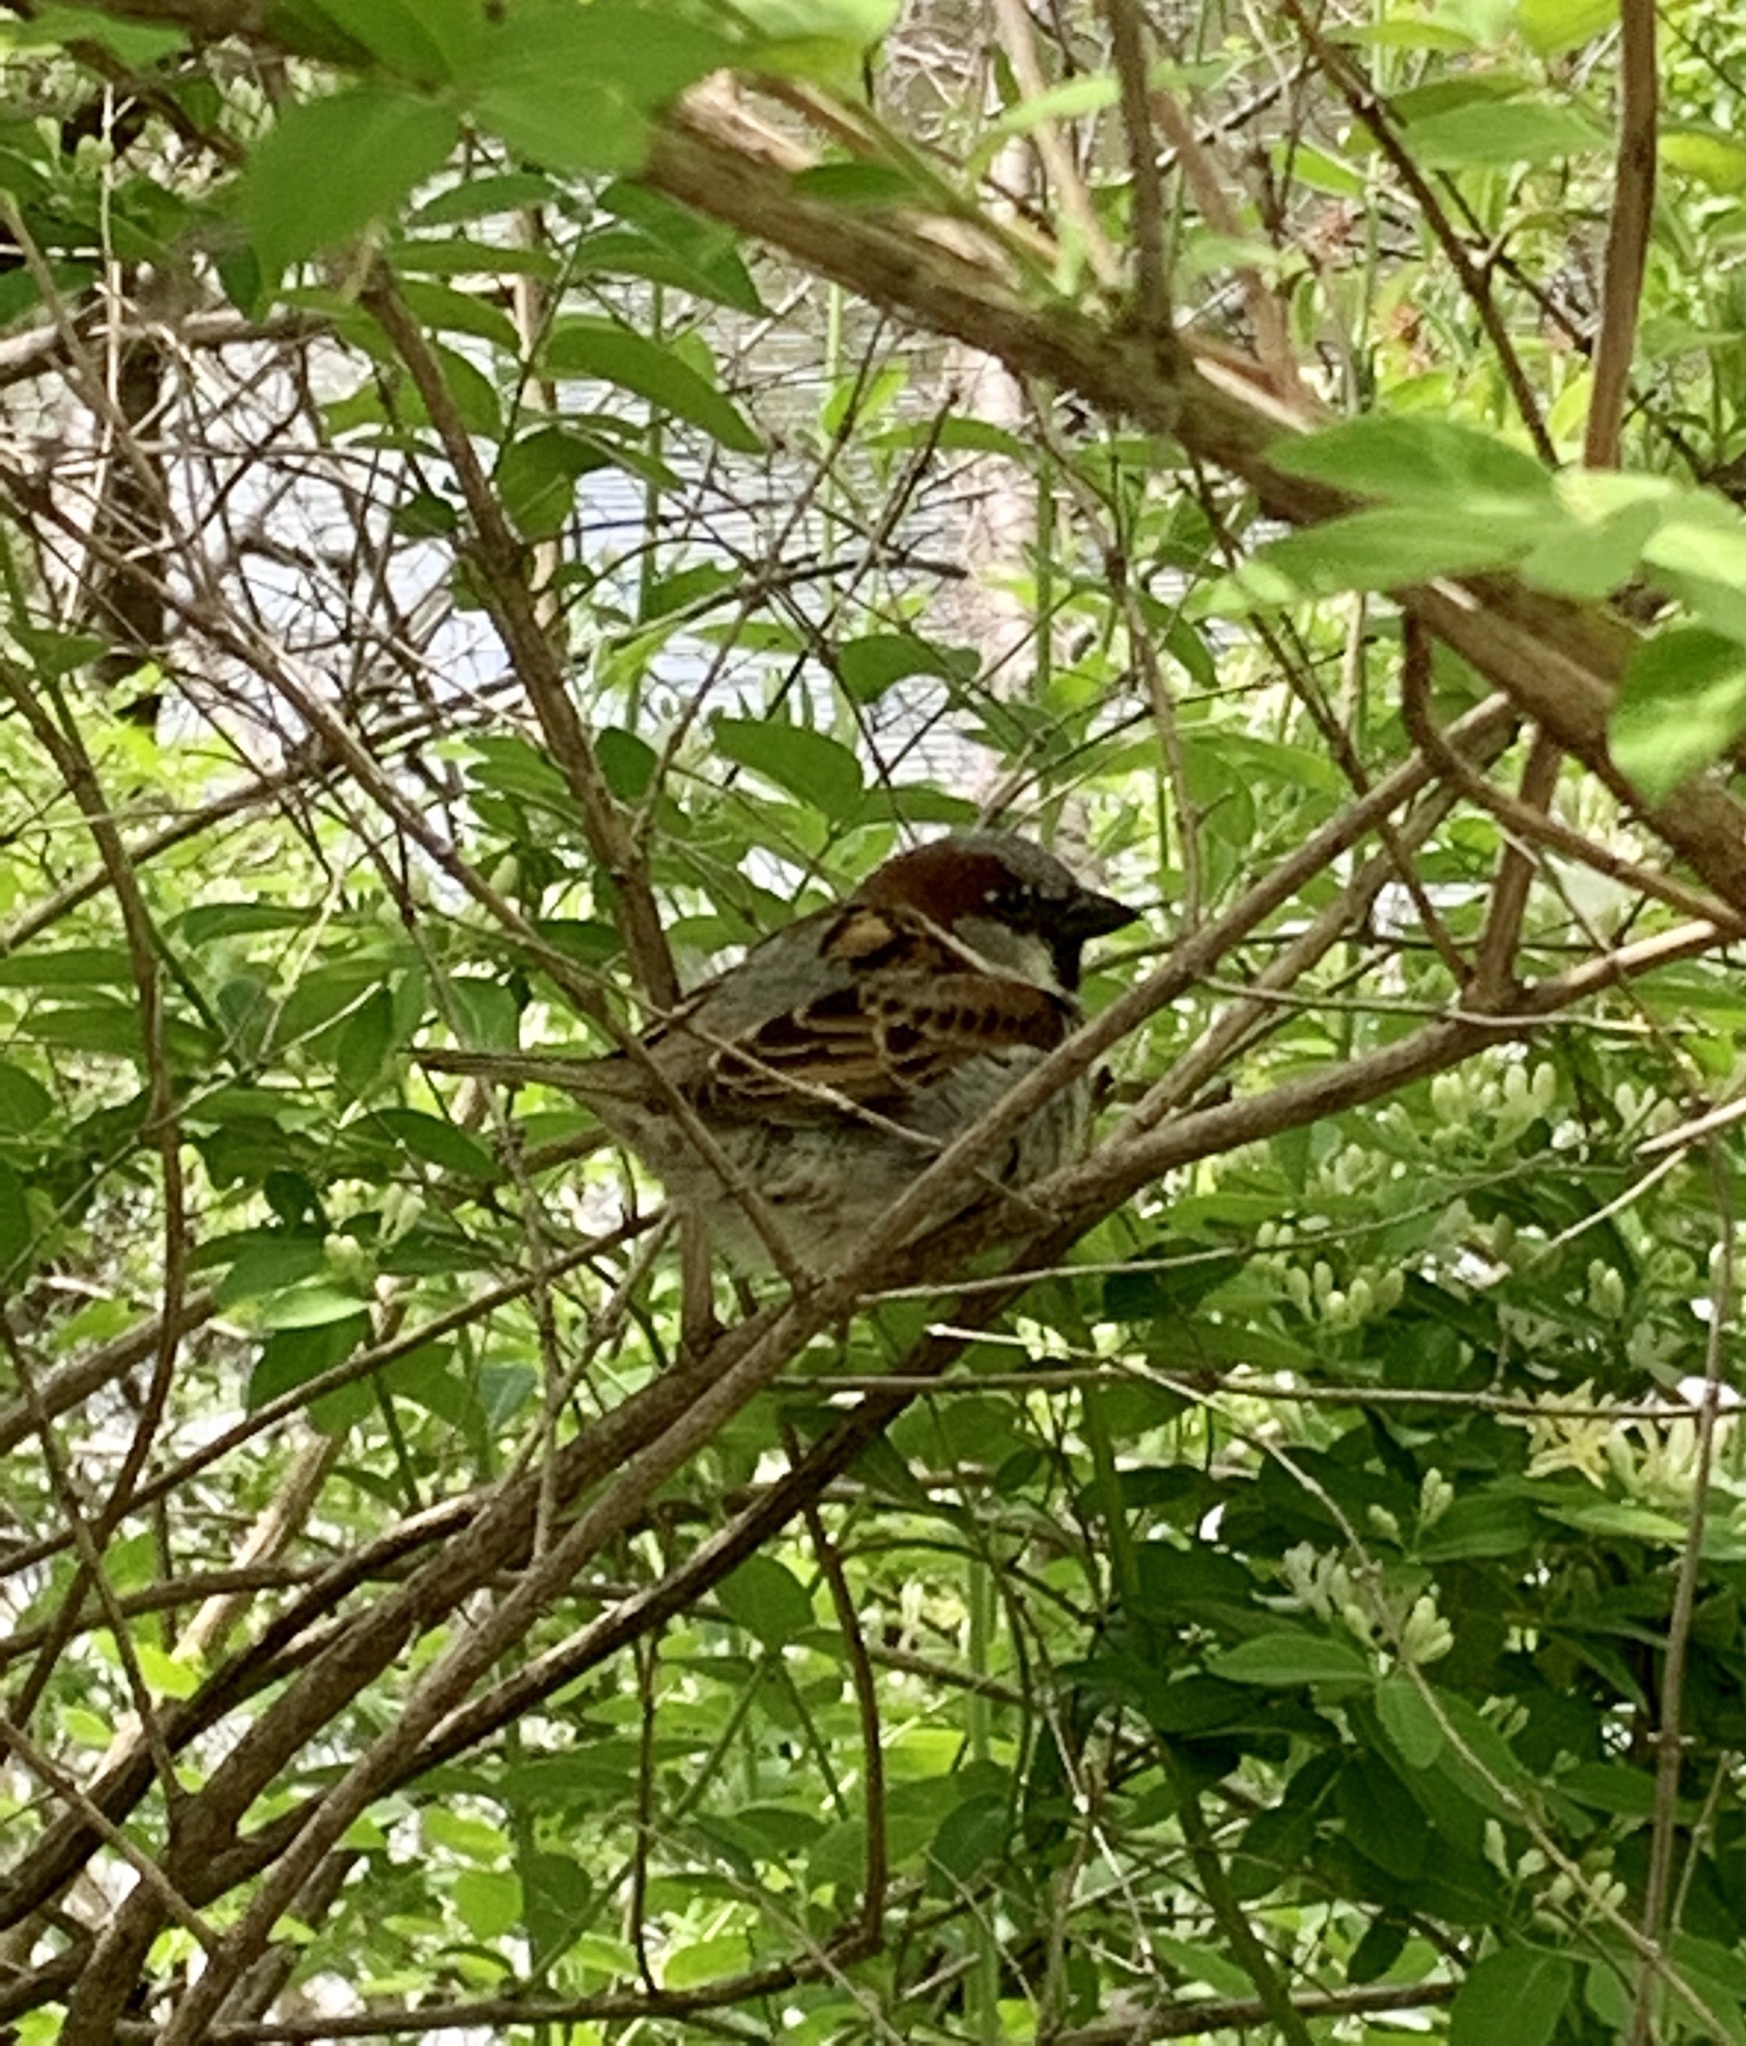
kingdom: Animalia
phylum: Chordata
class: Aves
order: Passeriformes
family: Passeridae
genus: Passer
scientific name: Passer domesticus
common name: House sparrow
